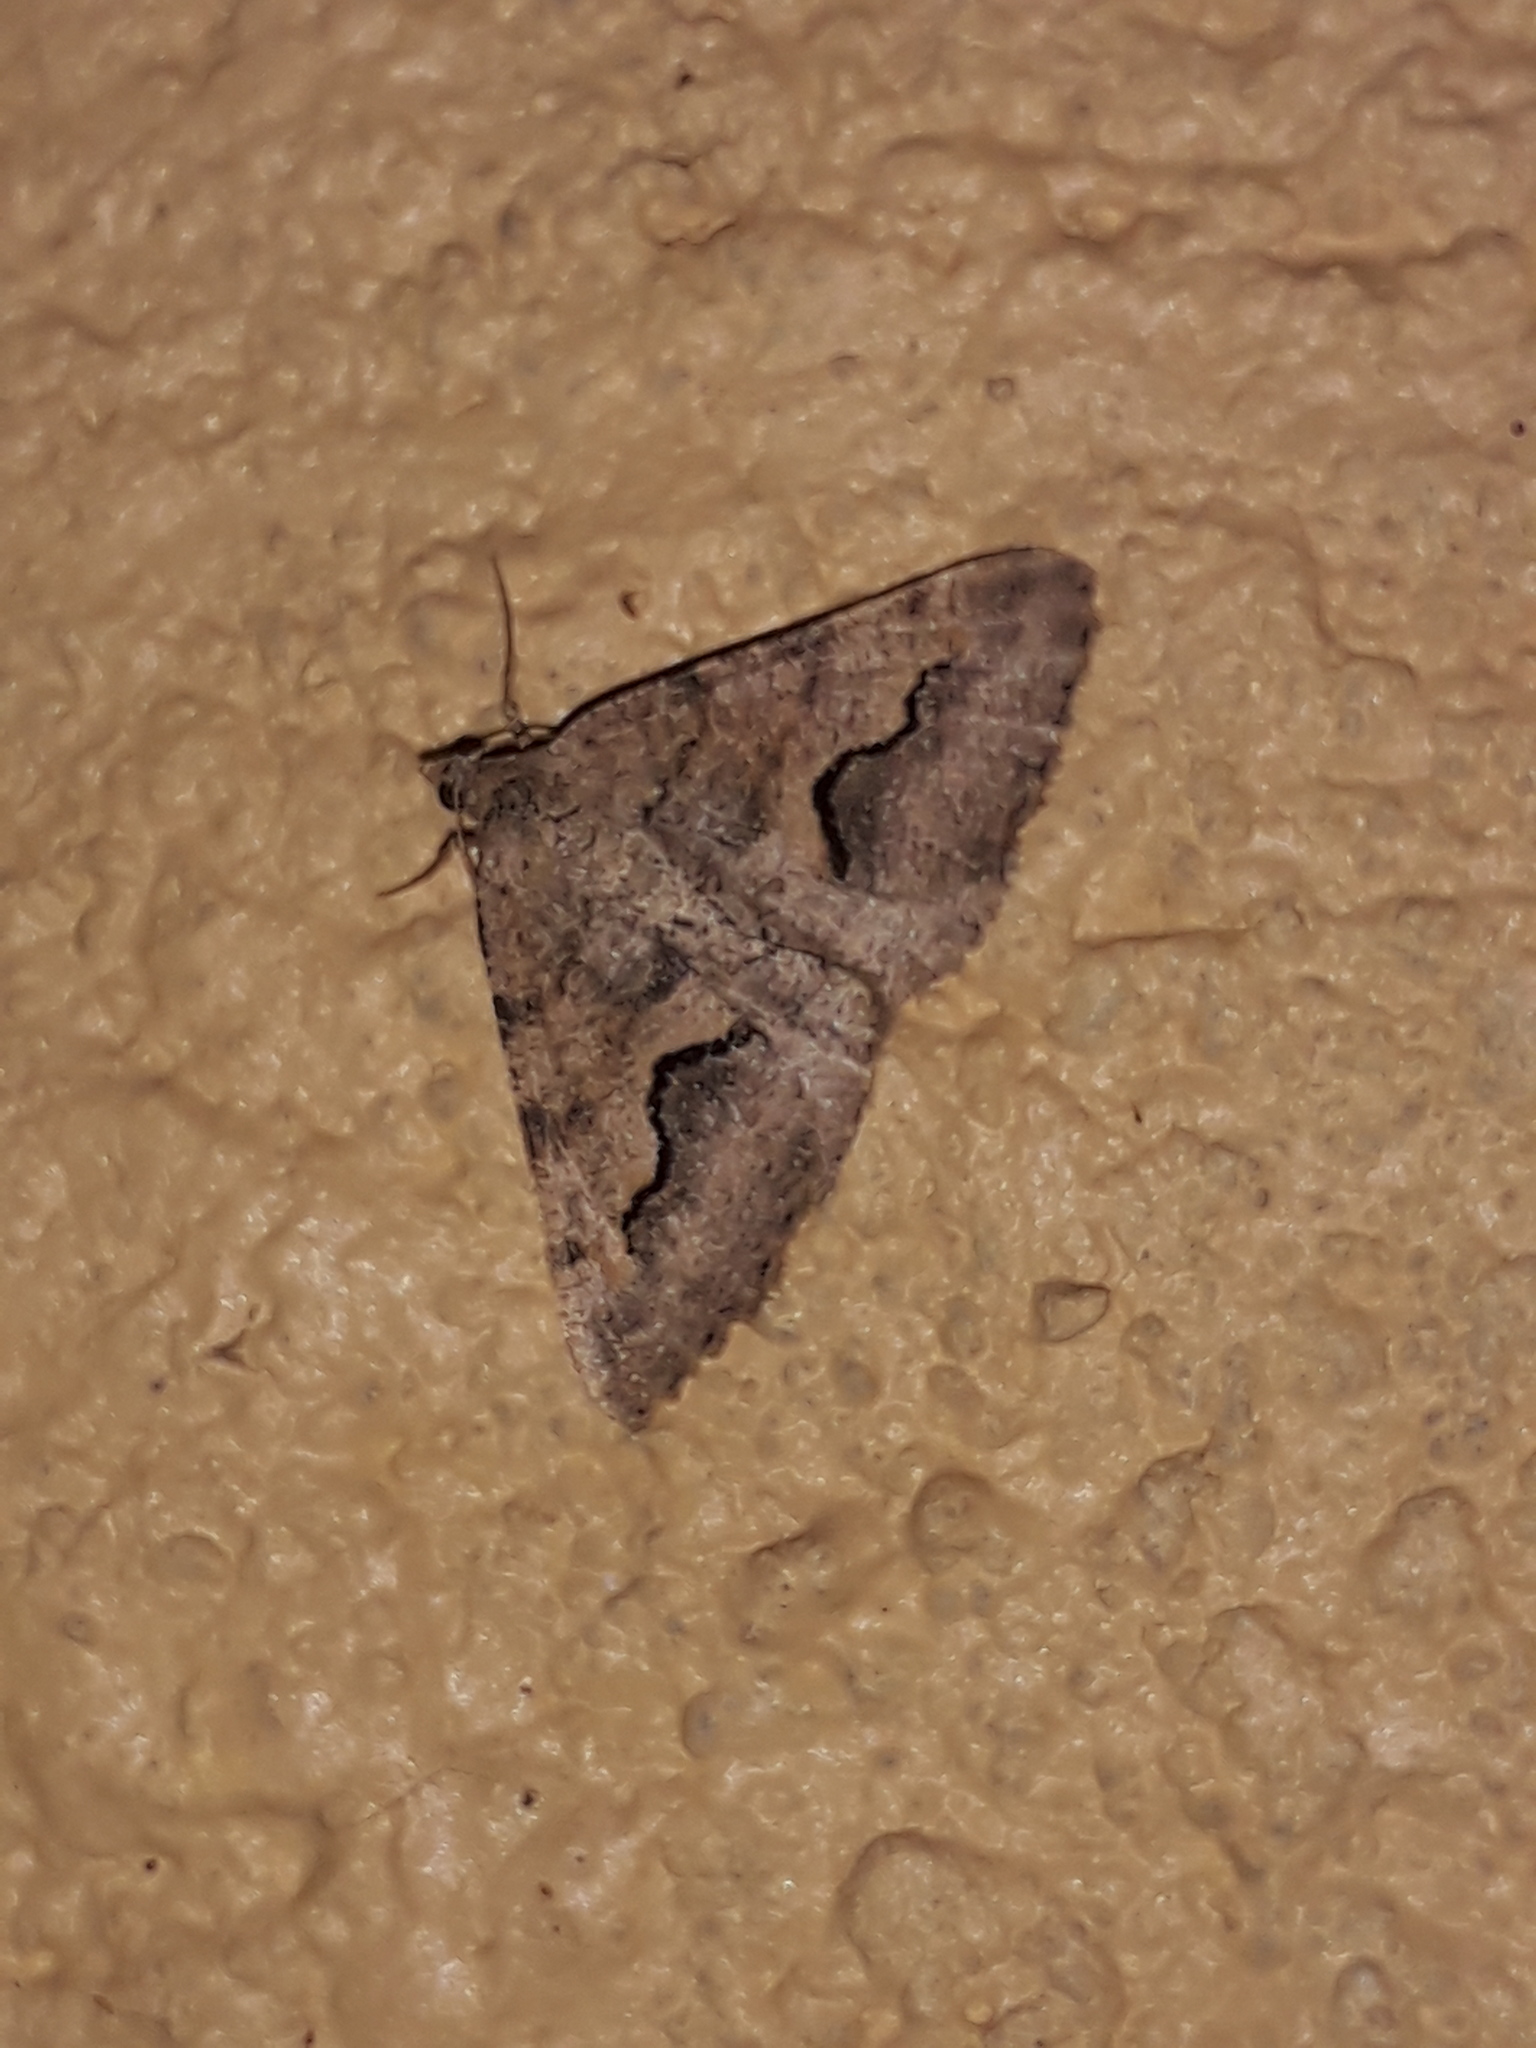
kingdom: Animalia
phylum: Arthropoda
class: Insecta
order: Lepidoptera
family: Geometridae
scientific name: Geometridae
